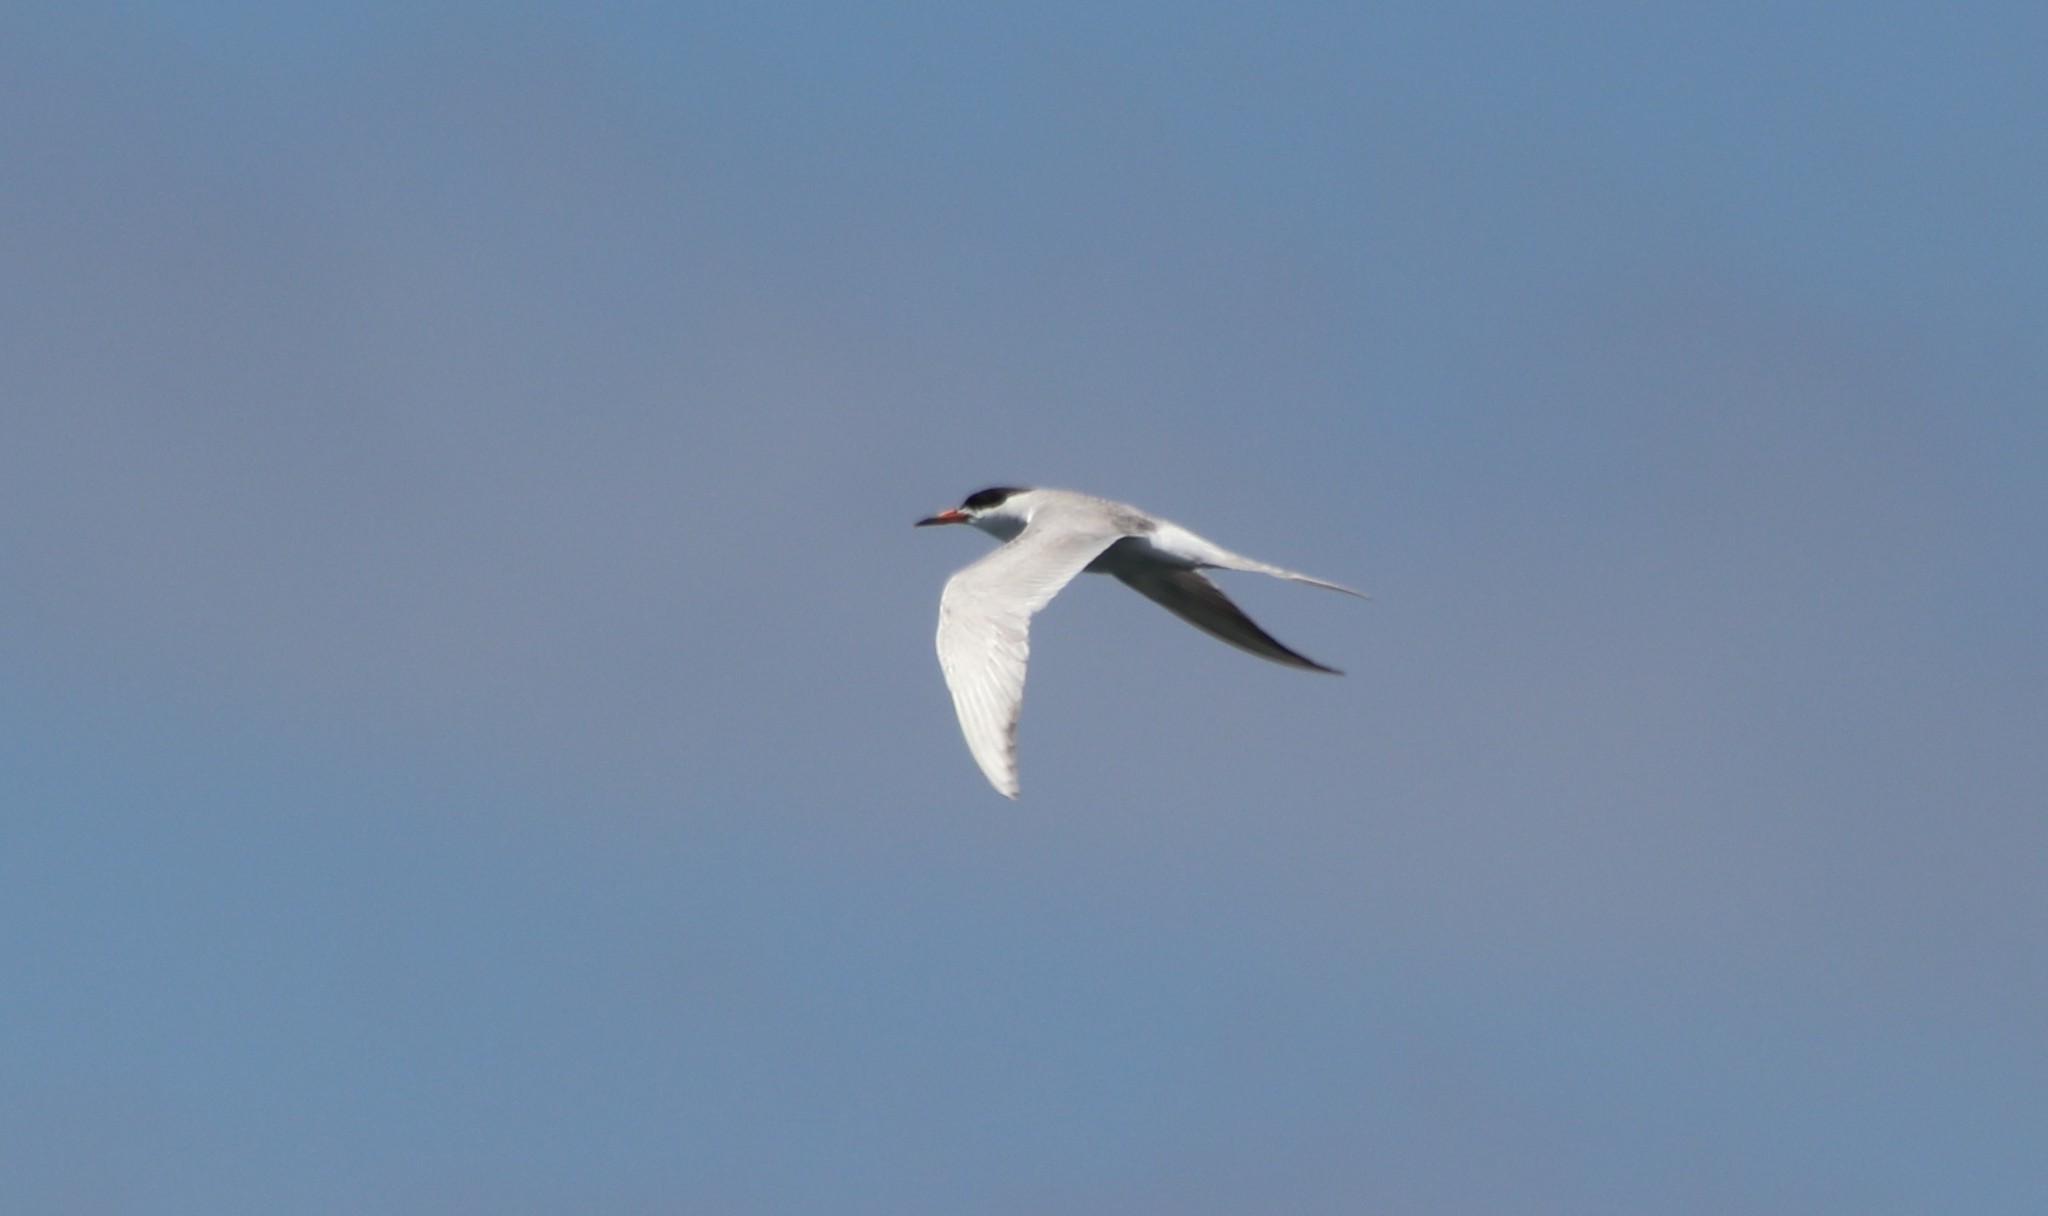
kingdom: Animalia
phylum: Chordata
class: Aves
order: Charadriiformes
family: Laridae
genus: Sterna
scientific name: Sterna forsteri
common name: Forster's tern
